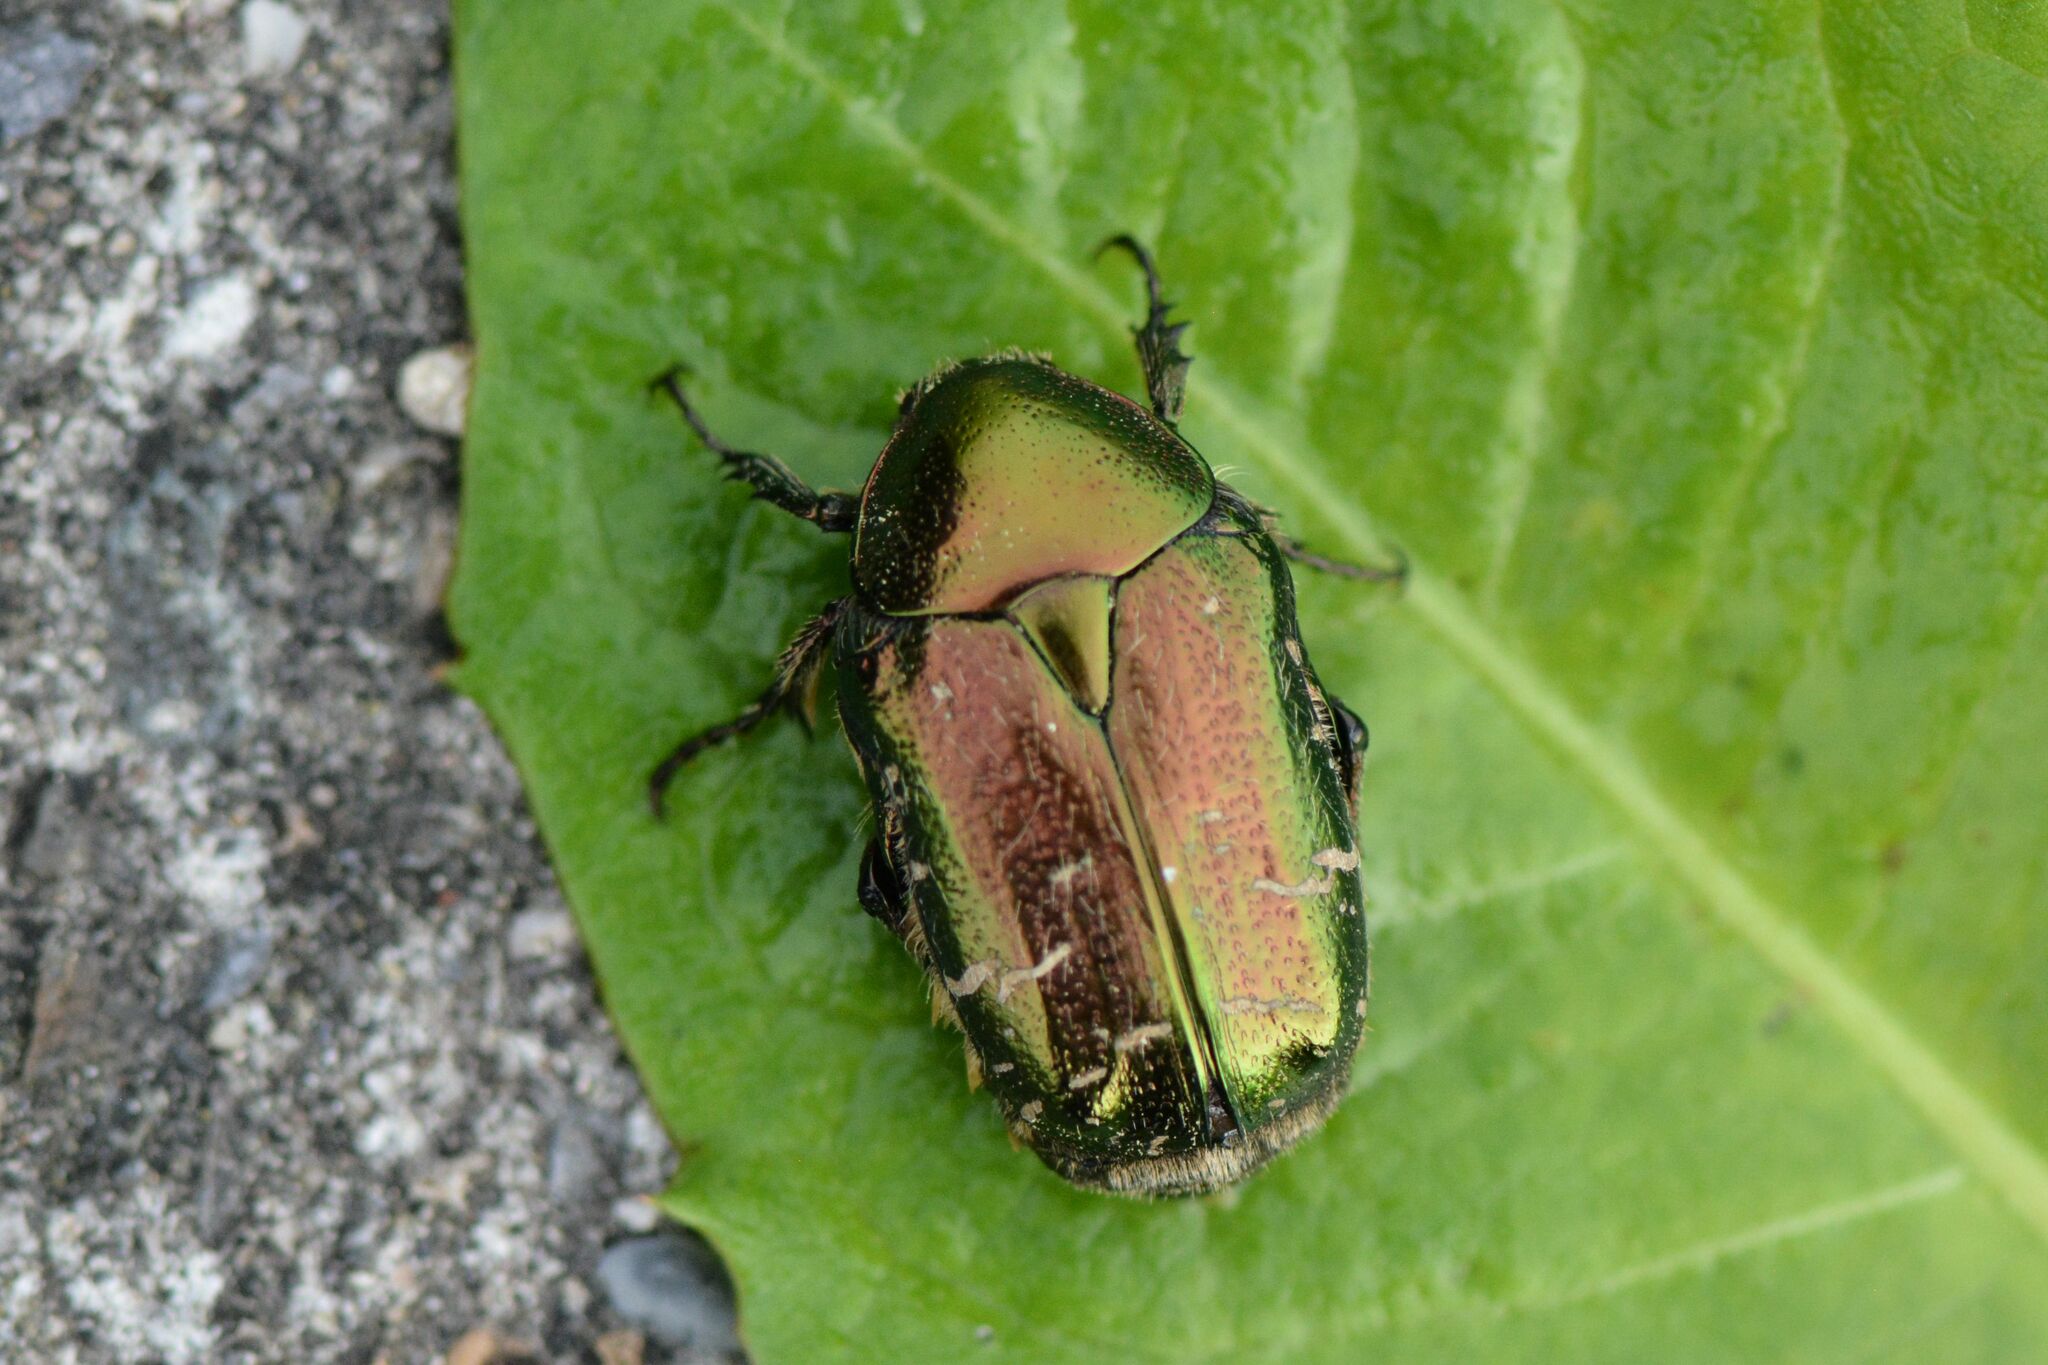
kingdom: Animalia
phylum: Arthropoda
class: Insecta
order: Coleoptera
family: Scarabaeidae
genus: Cetonia
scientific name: Cetonia aurata
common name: Rose chafer
